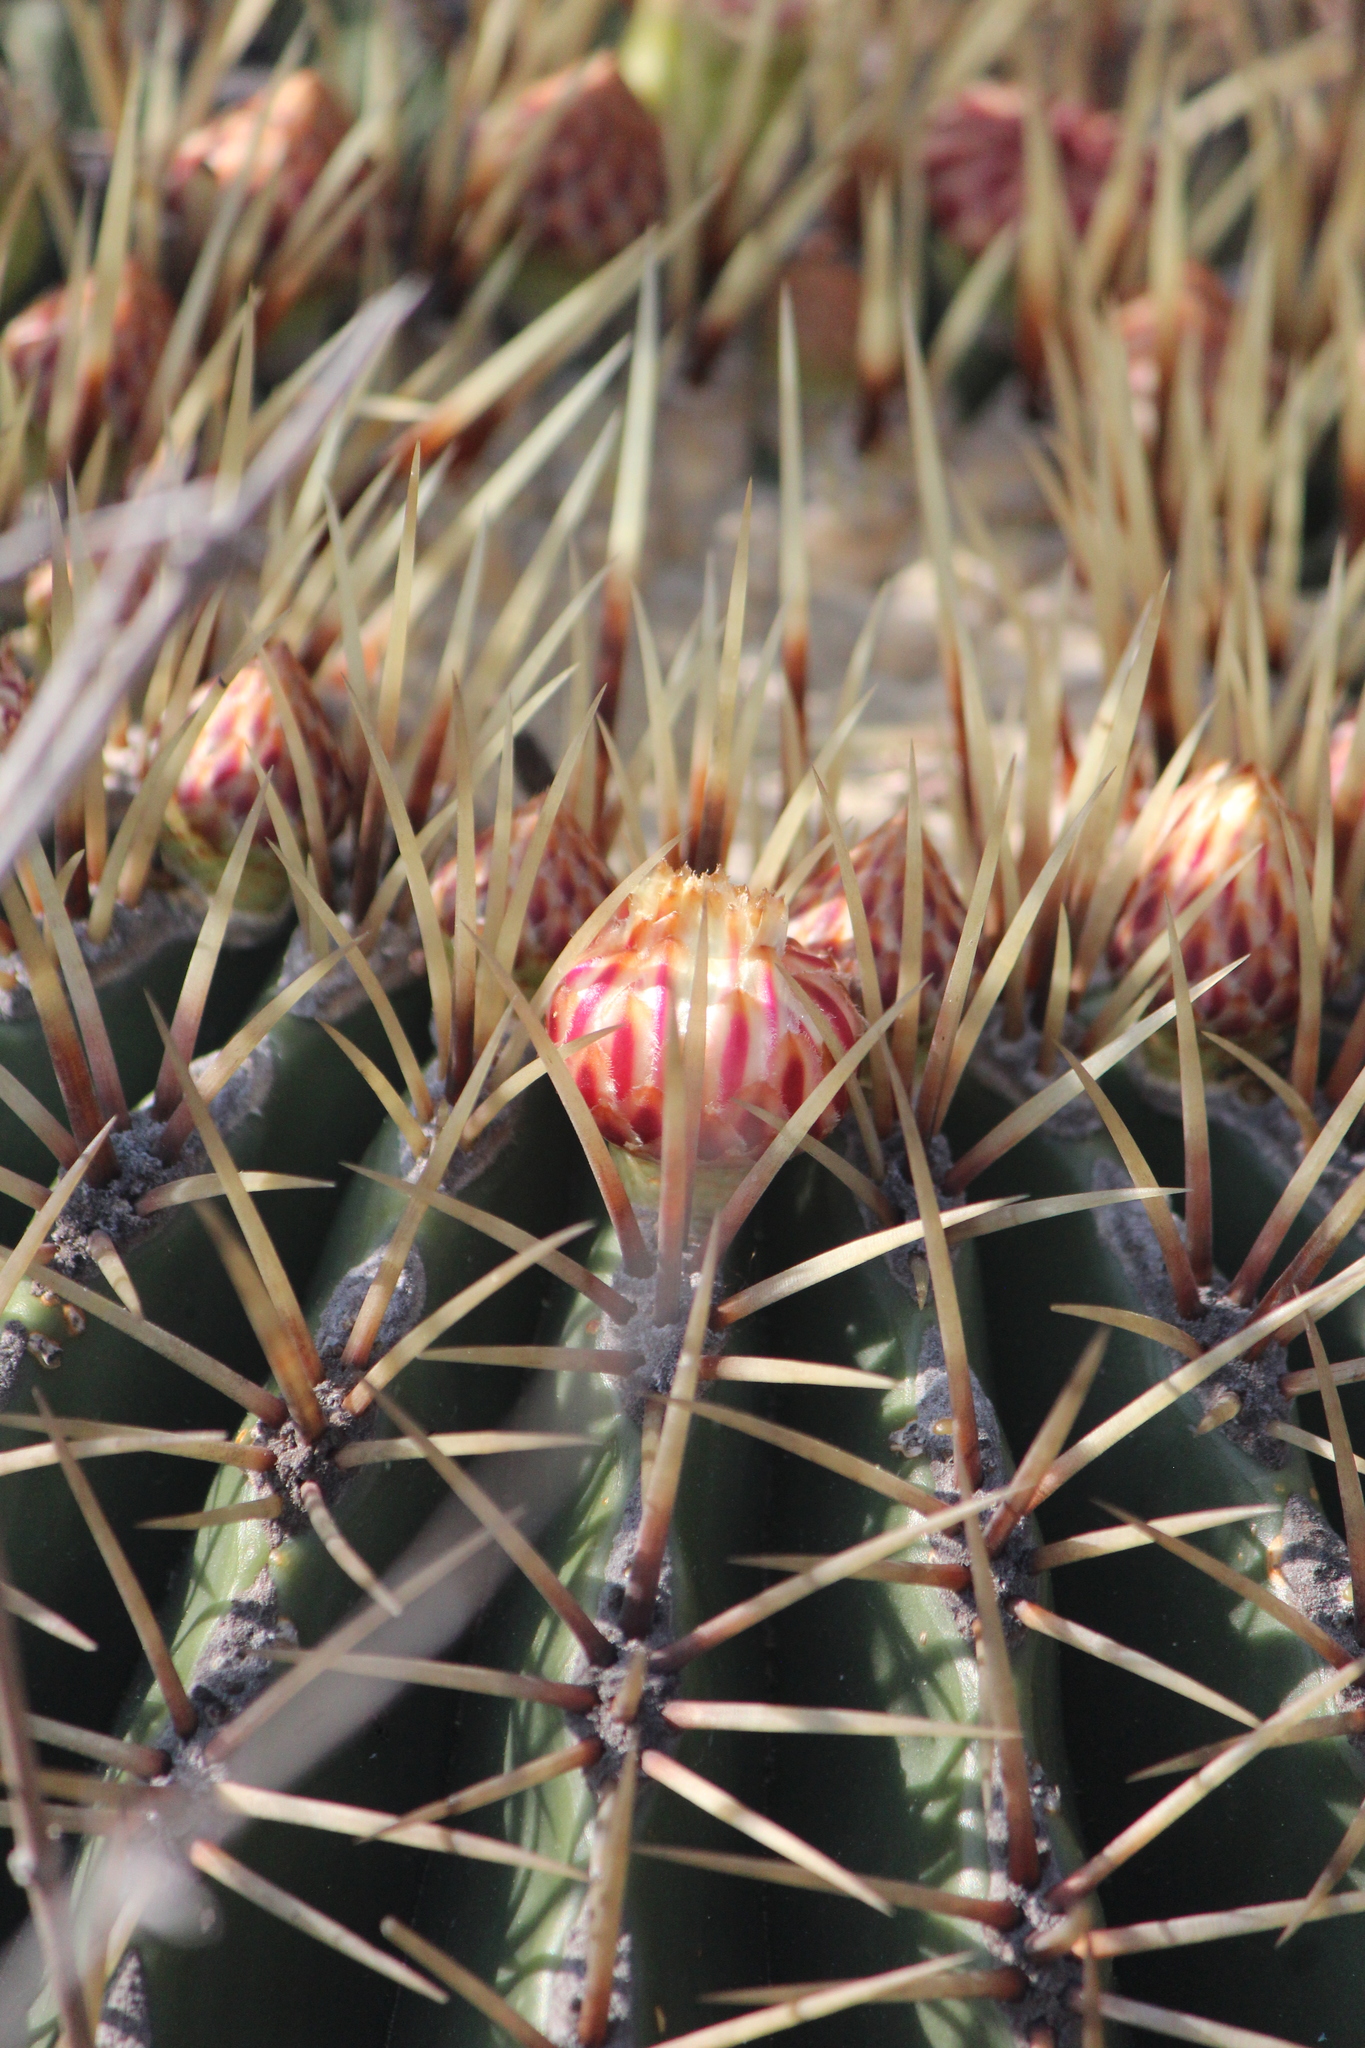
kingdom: Plantae
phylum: Tracheophyta
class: Magnoliopsida
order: Caryophyllales
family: Cactaceae
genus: Bisnaga
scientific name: Bisnaga histrix
